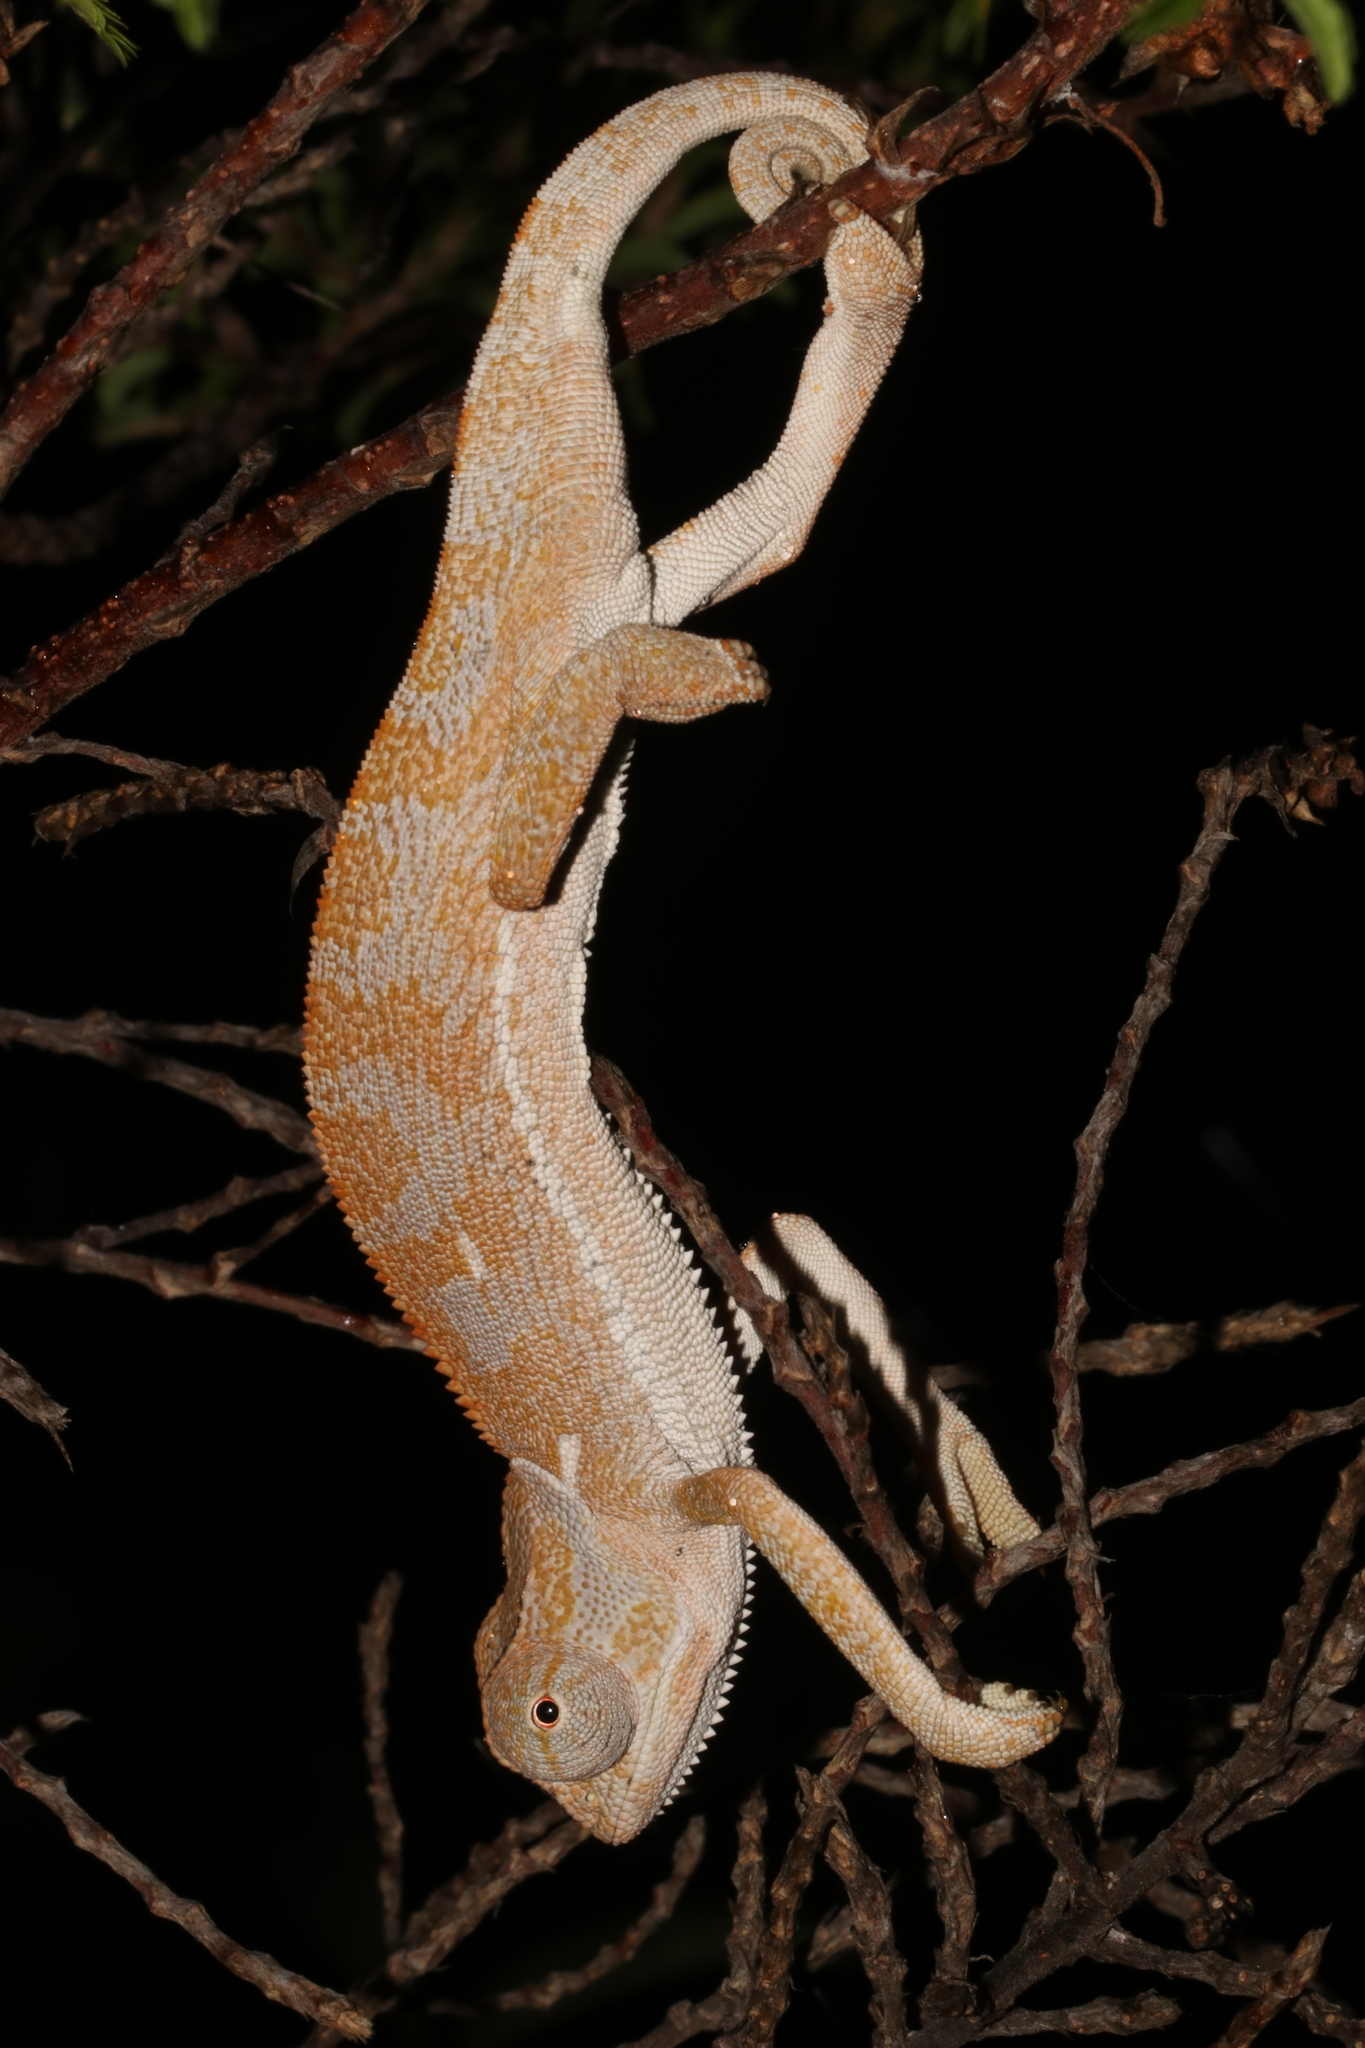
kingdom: Animalia
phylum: Chordata
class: Squamata
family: Chamaeleonidae
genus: Chamaeleo
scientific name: Chamaeleo dilepis
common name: Flapneck chameleon
